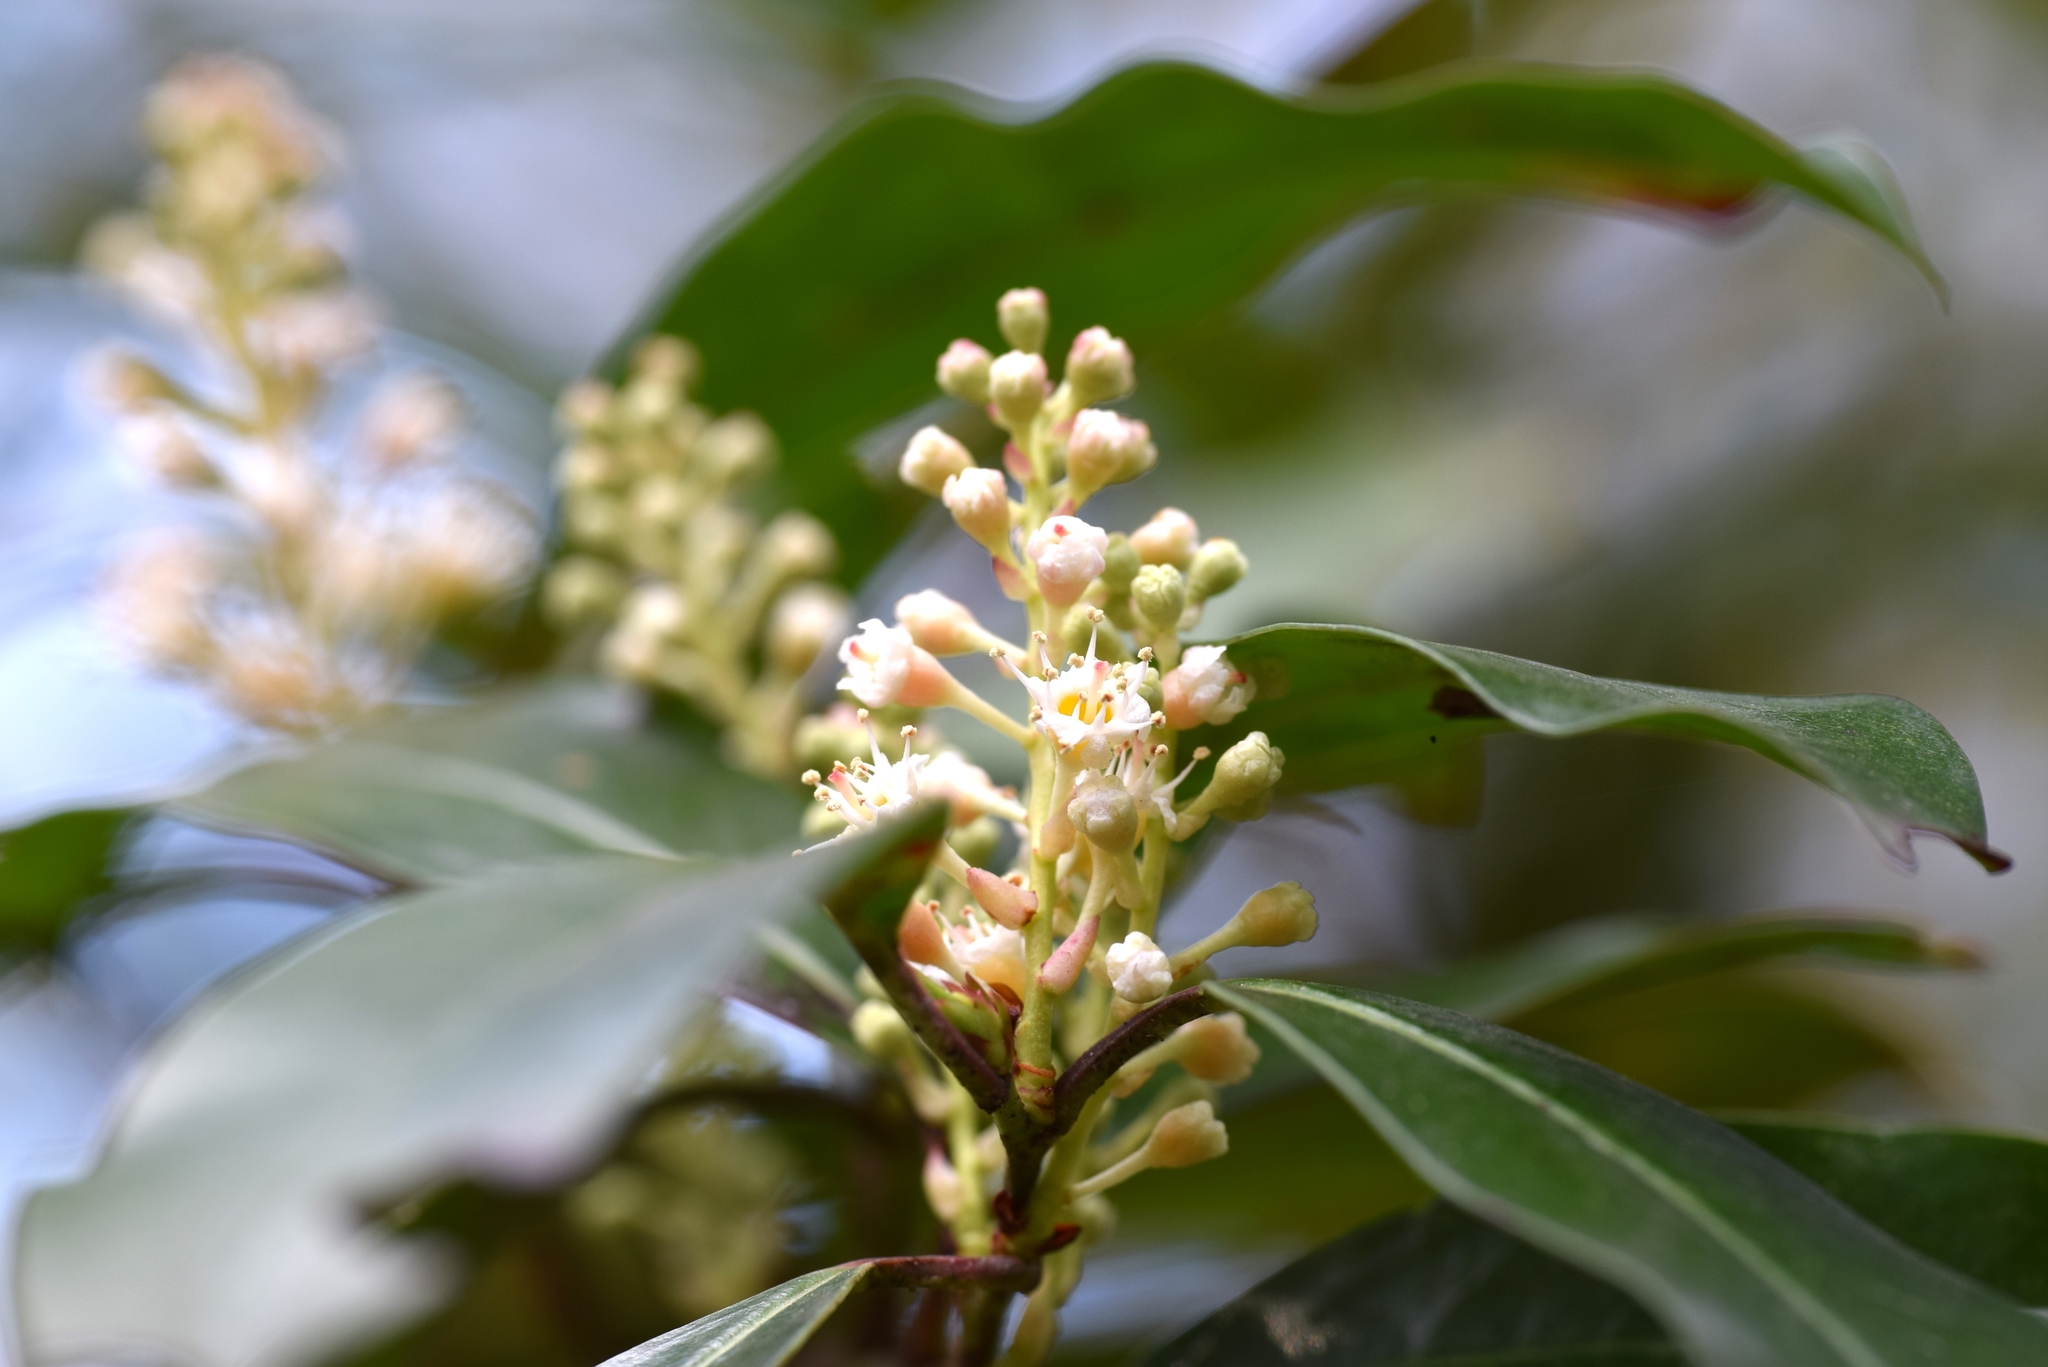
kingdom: Plantae
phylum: Tracheophyta
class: Magnoliopsida
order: Rosales
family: Rosaceae
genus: Prunus
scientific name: Prunus caroliniana
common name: Carolina laurel cherry
